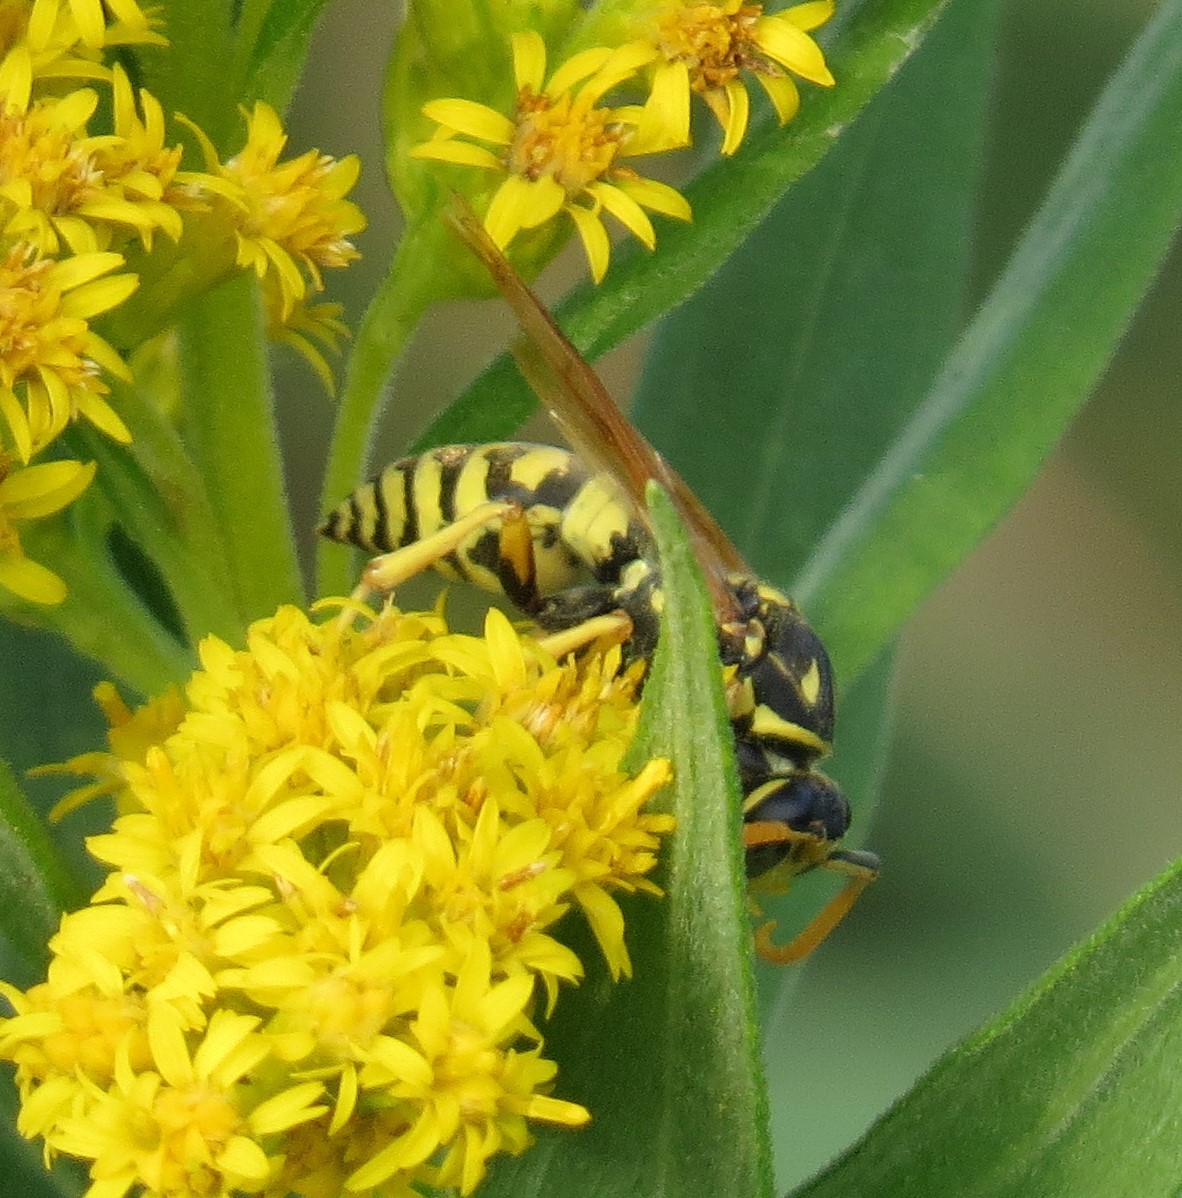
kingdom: Animalia
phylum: Arthropoda
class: Insecta
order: Hymenoptera
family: Eumenidae
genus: Polistes
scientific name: Polistes dominula
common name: Paper wasp
